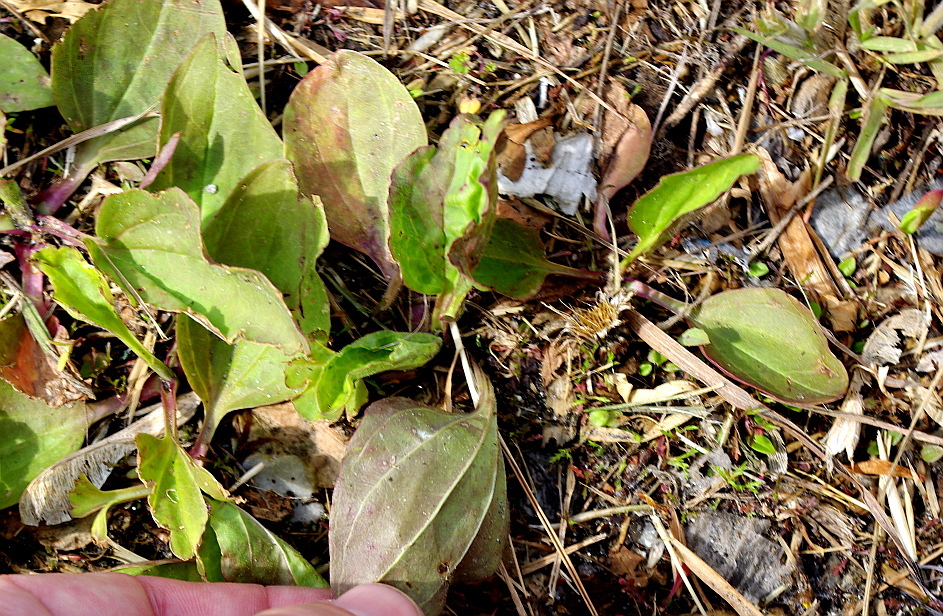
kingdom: Plantae
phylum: Tracheophyta
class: Magnoliopsida
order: Lamiales
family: Plantaginaceae
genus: Plantago
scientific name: Plantago major
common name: Common plantain
